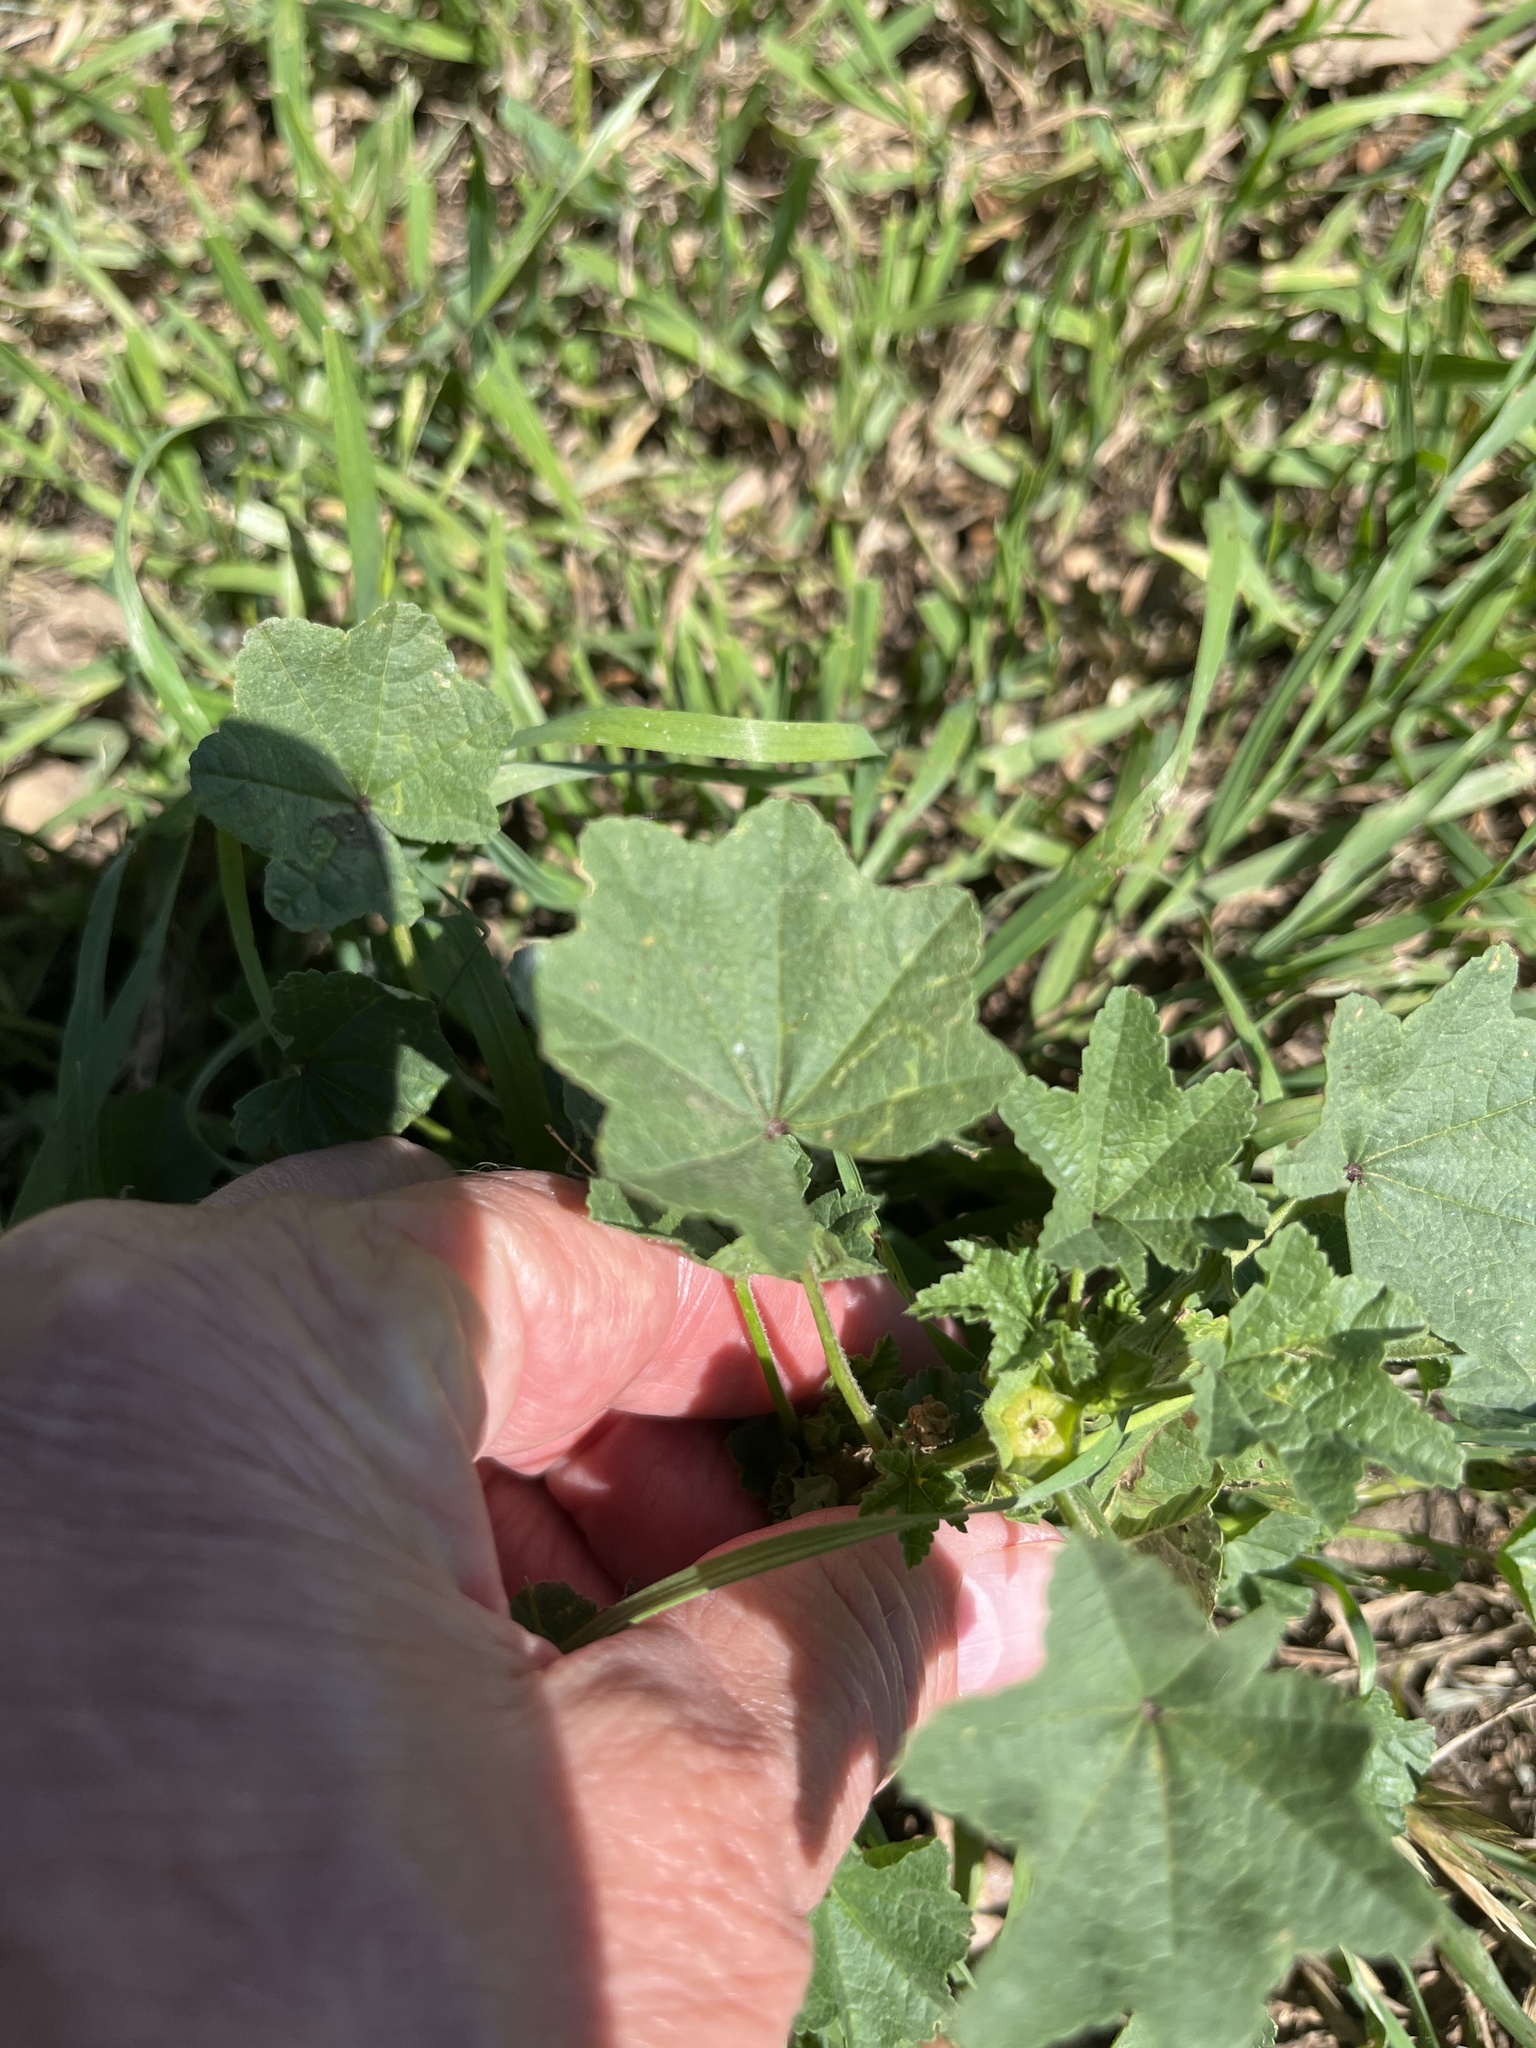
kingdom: Plantae
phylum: Tracheophyta
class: Magnoliopsida
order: Malvales
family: Malvaceae
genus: Malva
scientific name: Malva parviflora
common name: Least mallow
